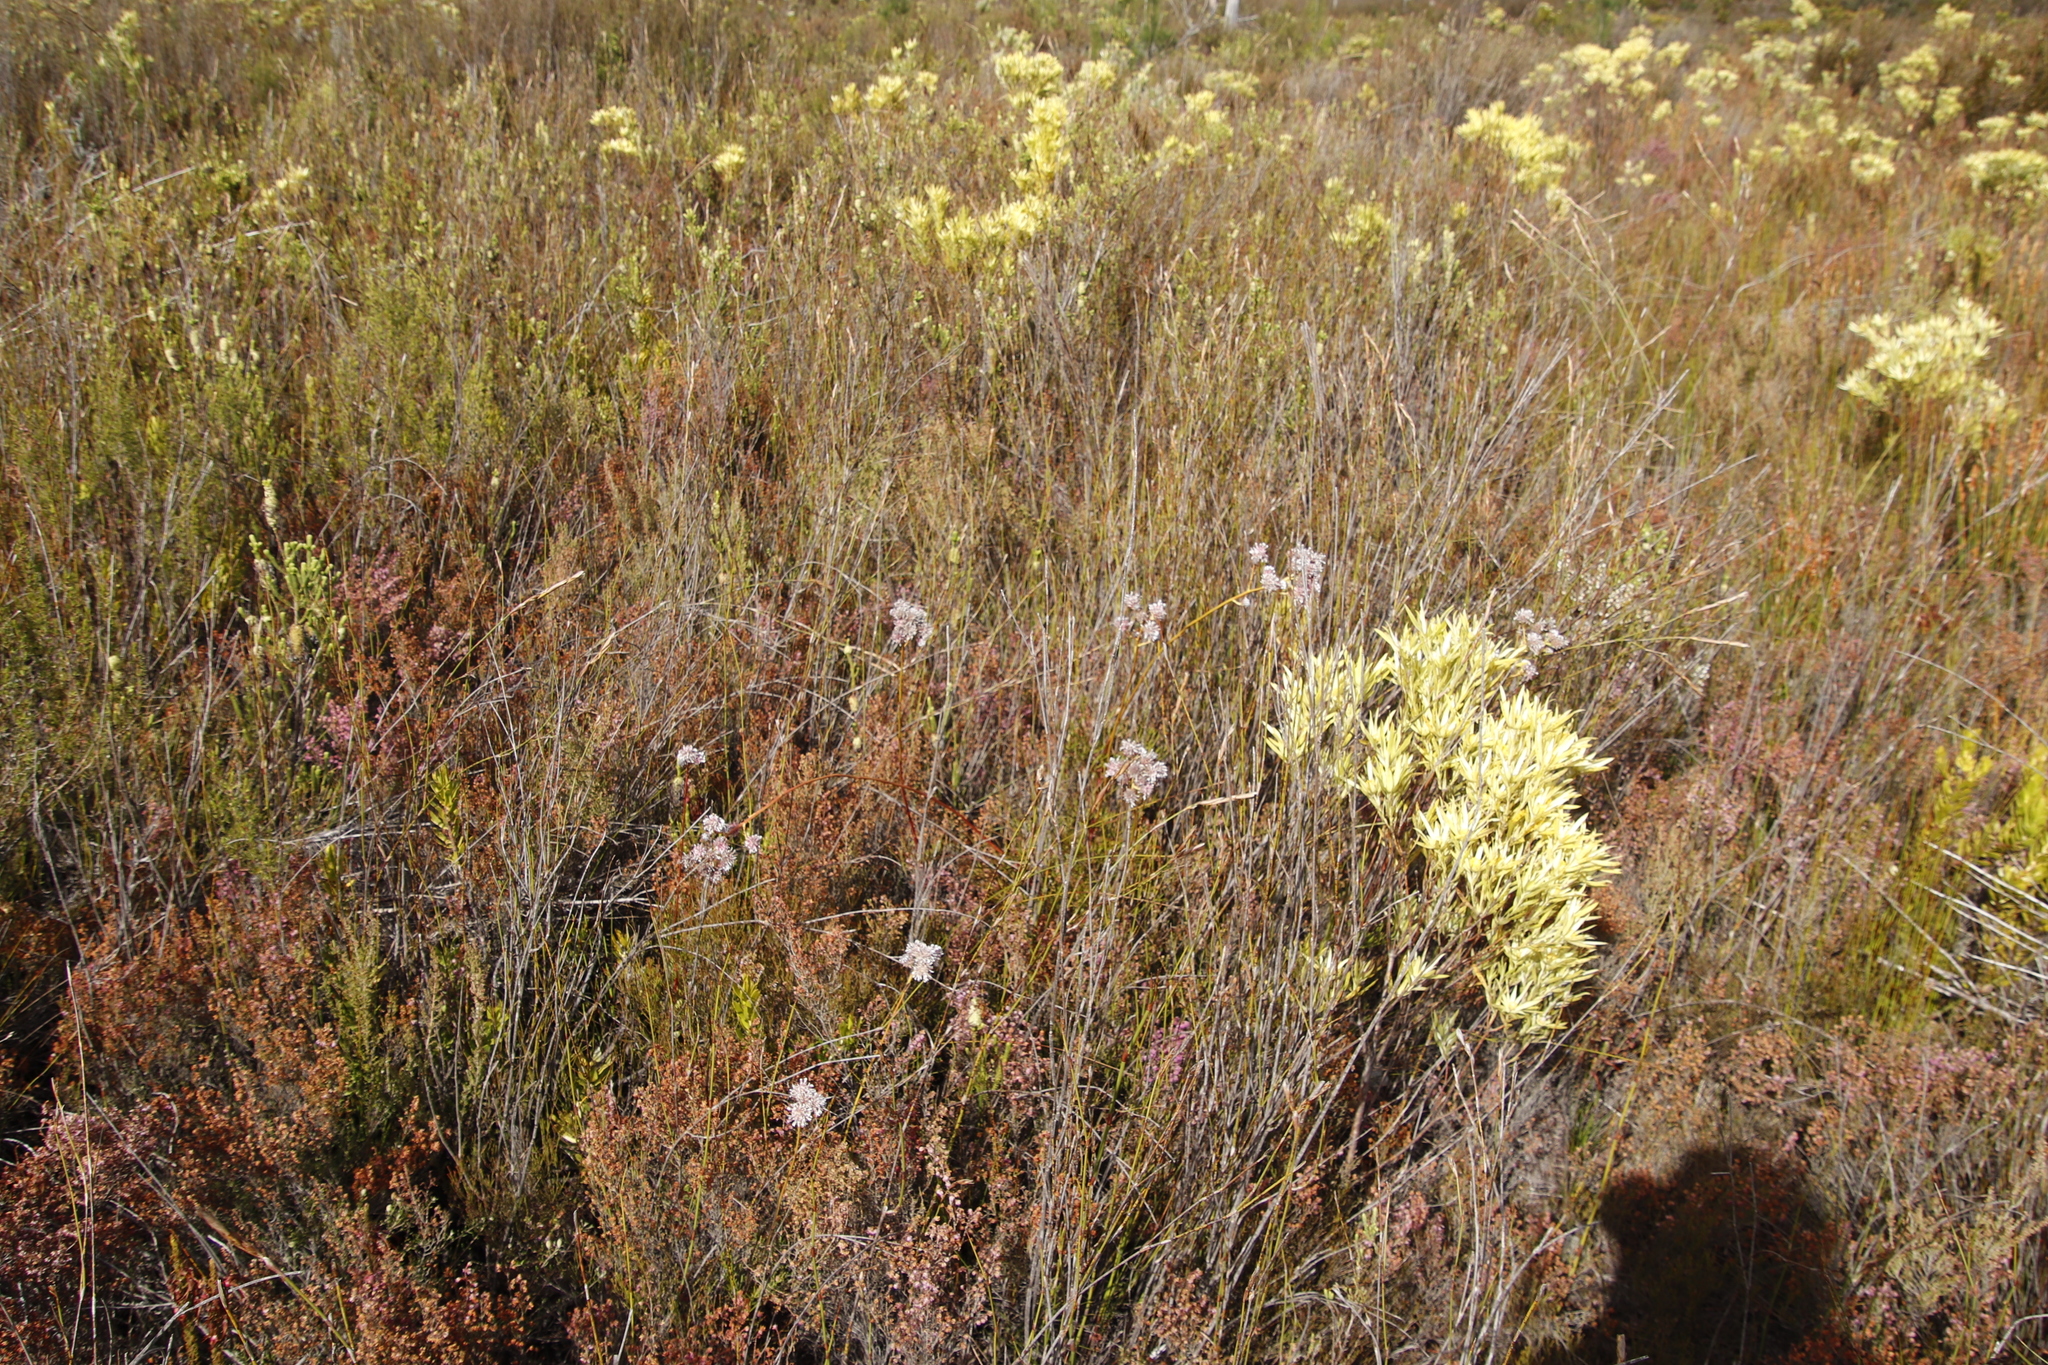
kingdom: Plantae
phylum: Tracheophyta
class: Magnoliopsida
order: Proteales
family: Proteaceae
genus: Serruria
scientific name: Serruria elongata
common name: Long-stalk spiderhead
